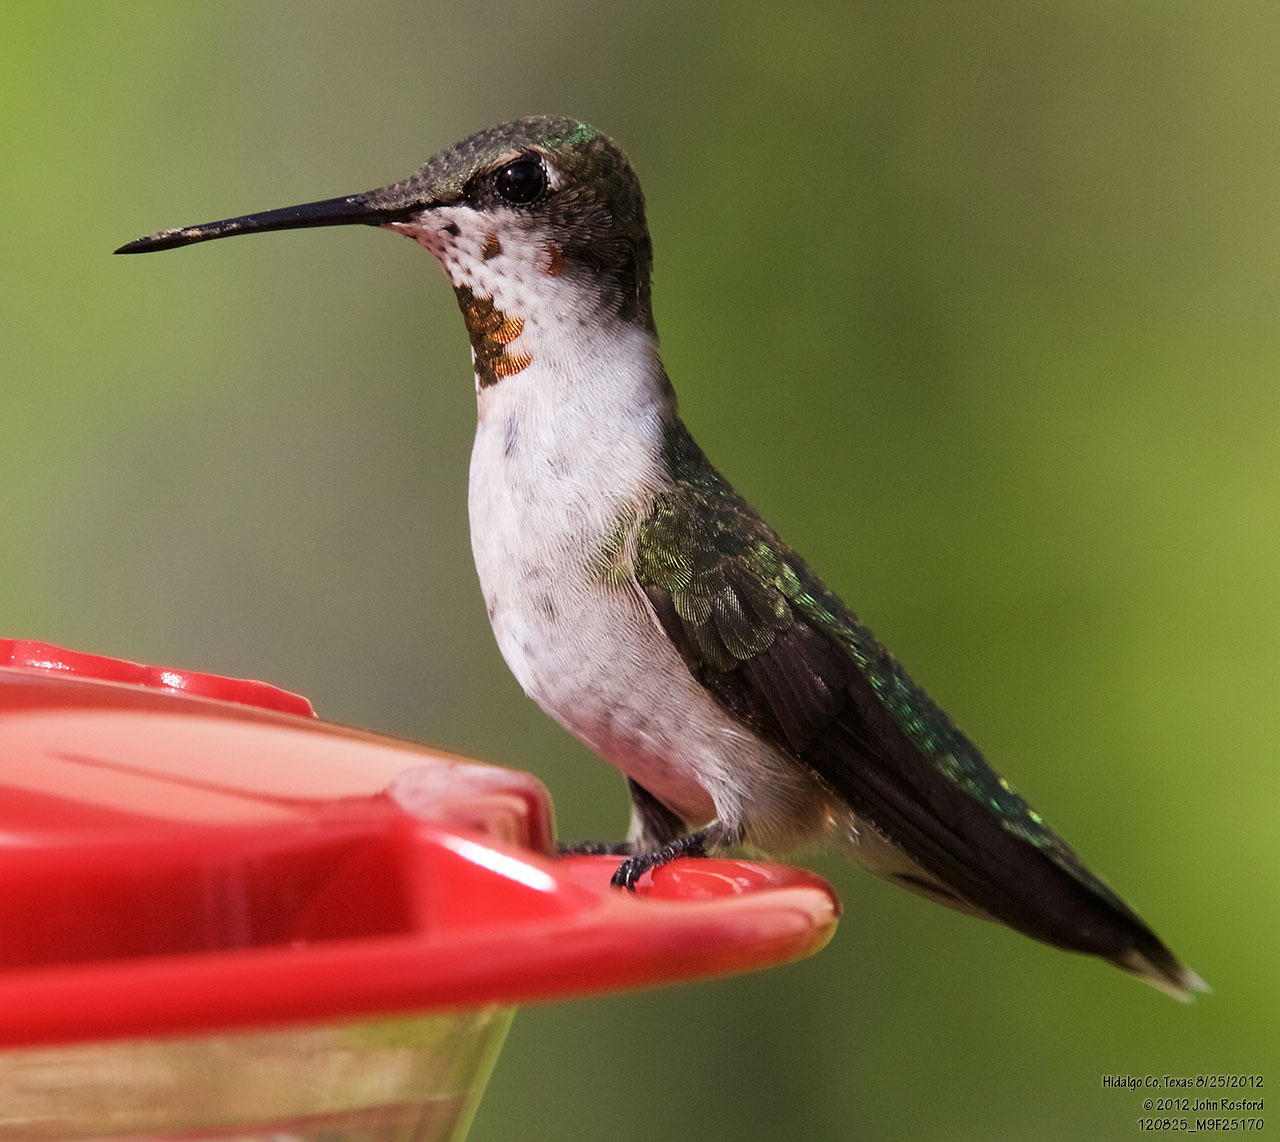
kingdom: Animalia
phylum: Chordata
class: Aves
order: Apodiformes
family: Trochilidae
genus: Archilochus
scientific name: Archilochus colubris
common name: Ruby-throated hummingbird
